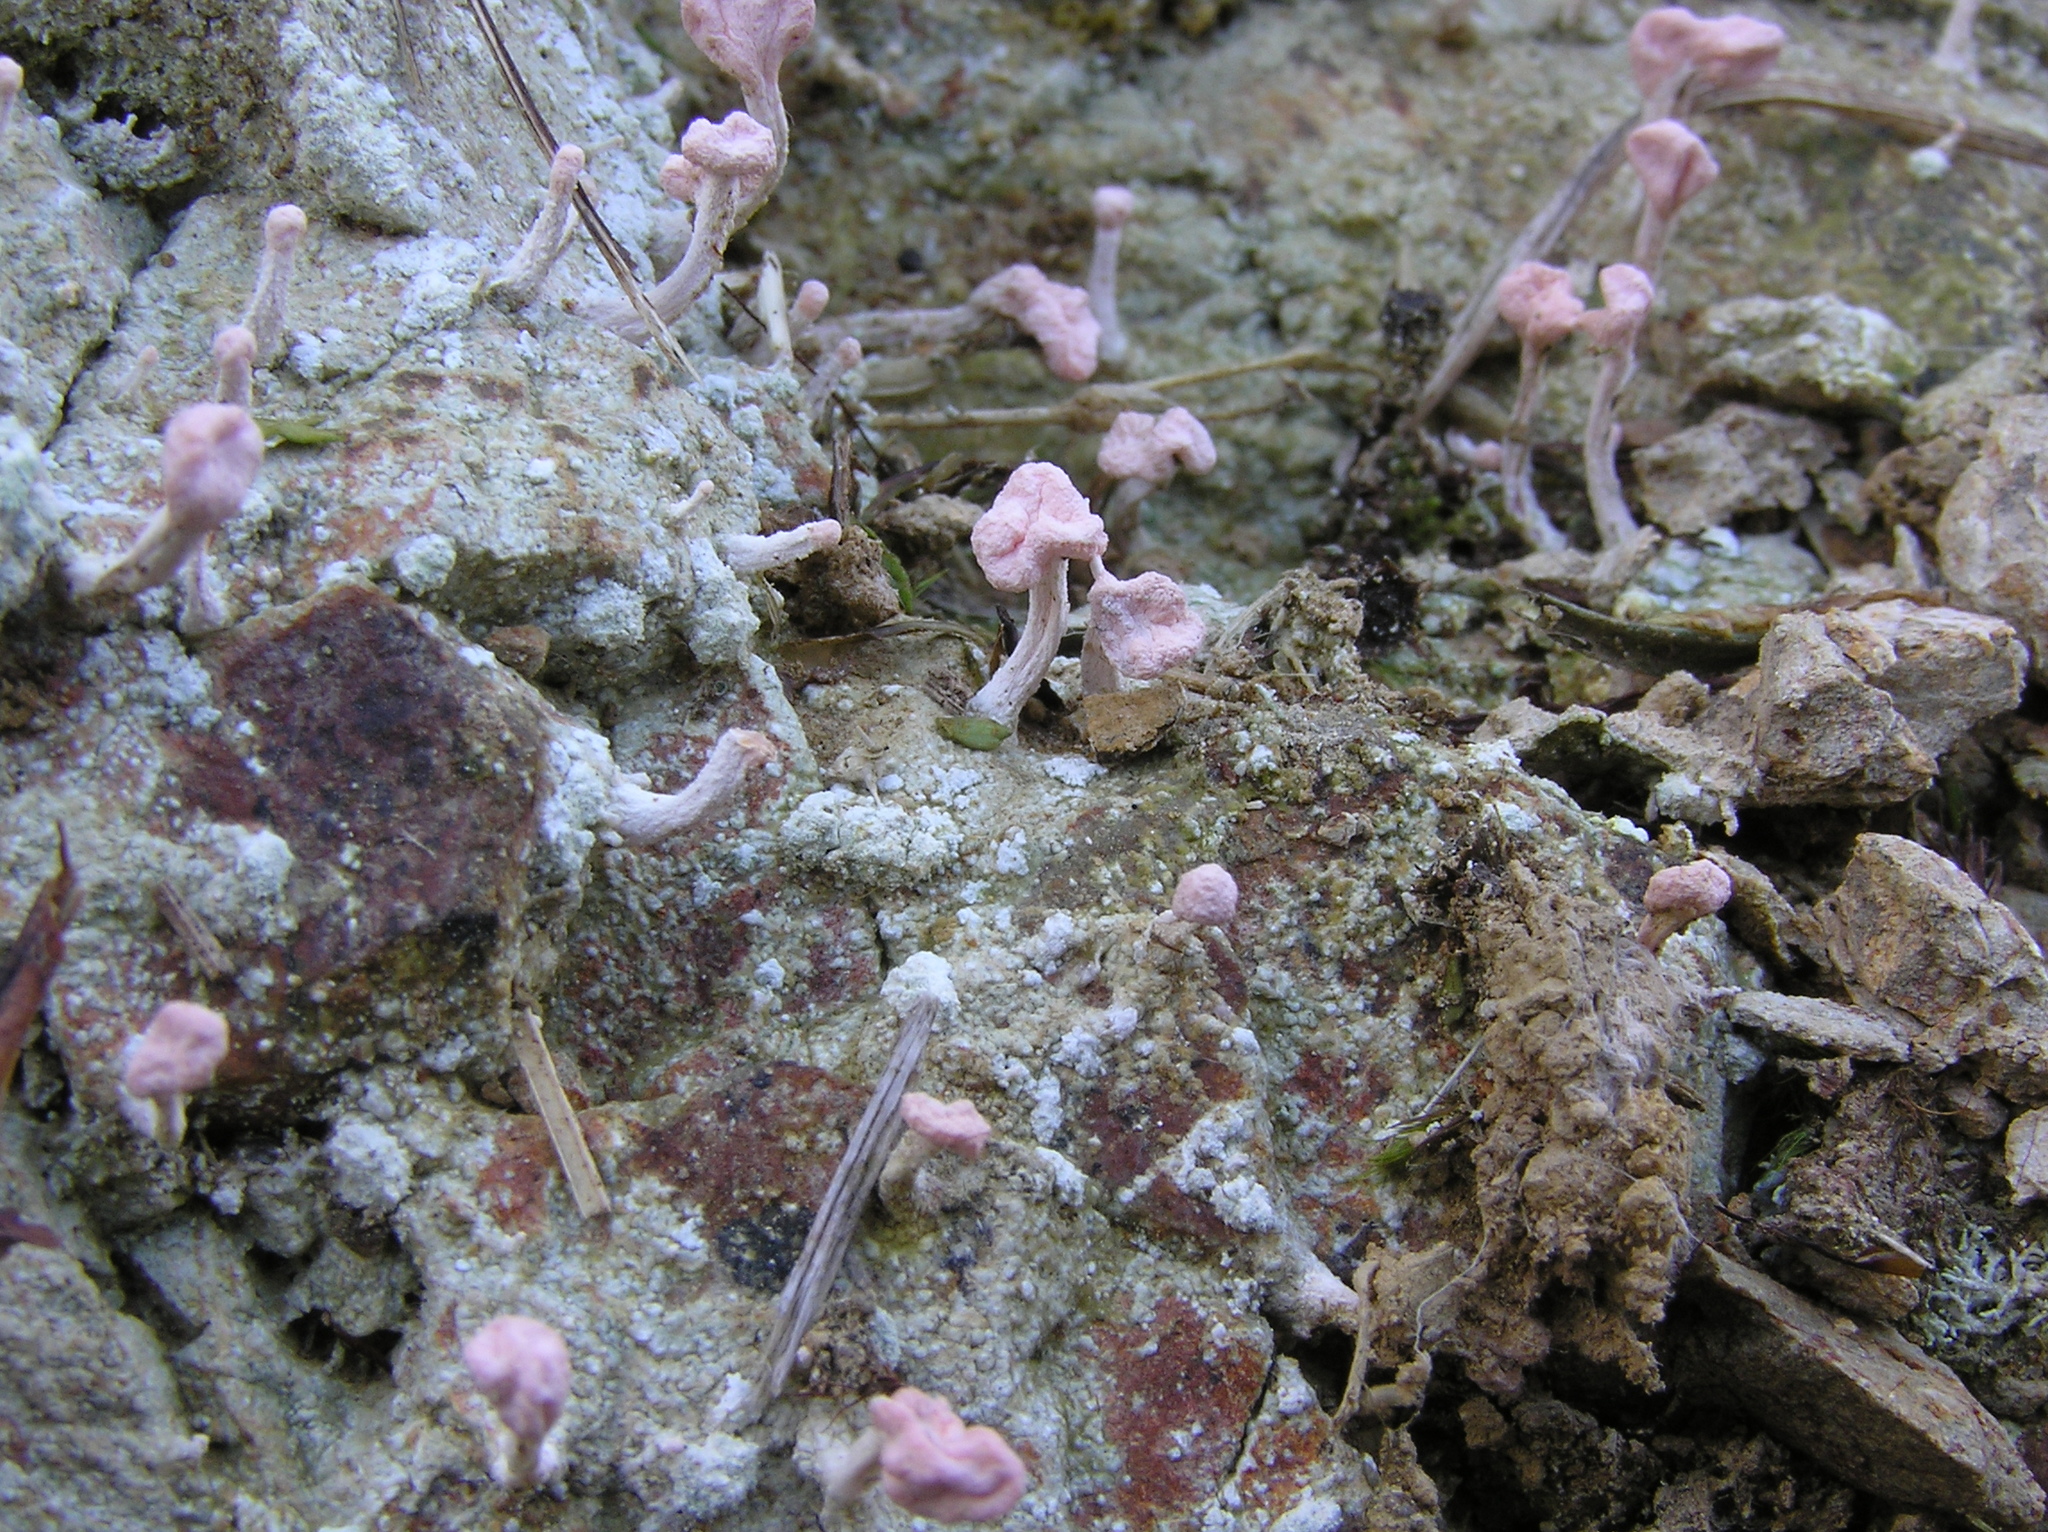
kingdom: Fungi
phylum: Ascomycota
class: Lecanoromycetes
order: Pertusariales
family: Icmadophilaceae
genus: Dibaeis
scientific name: Dibaeis arcuata
